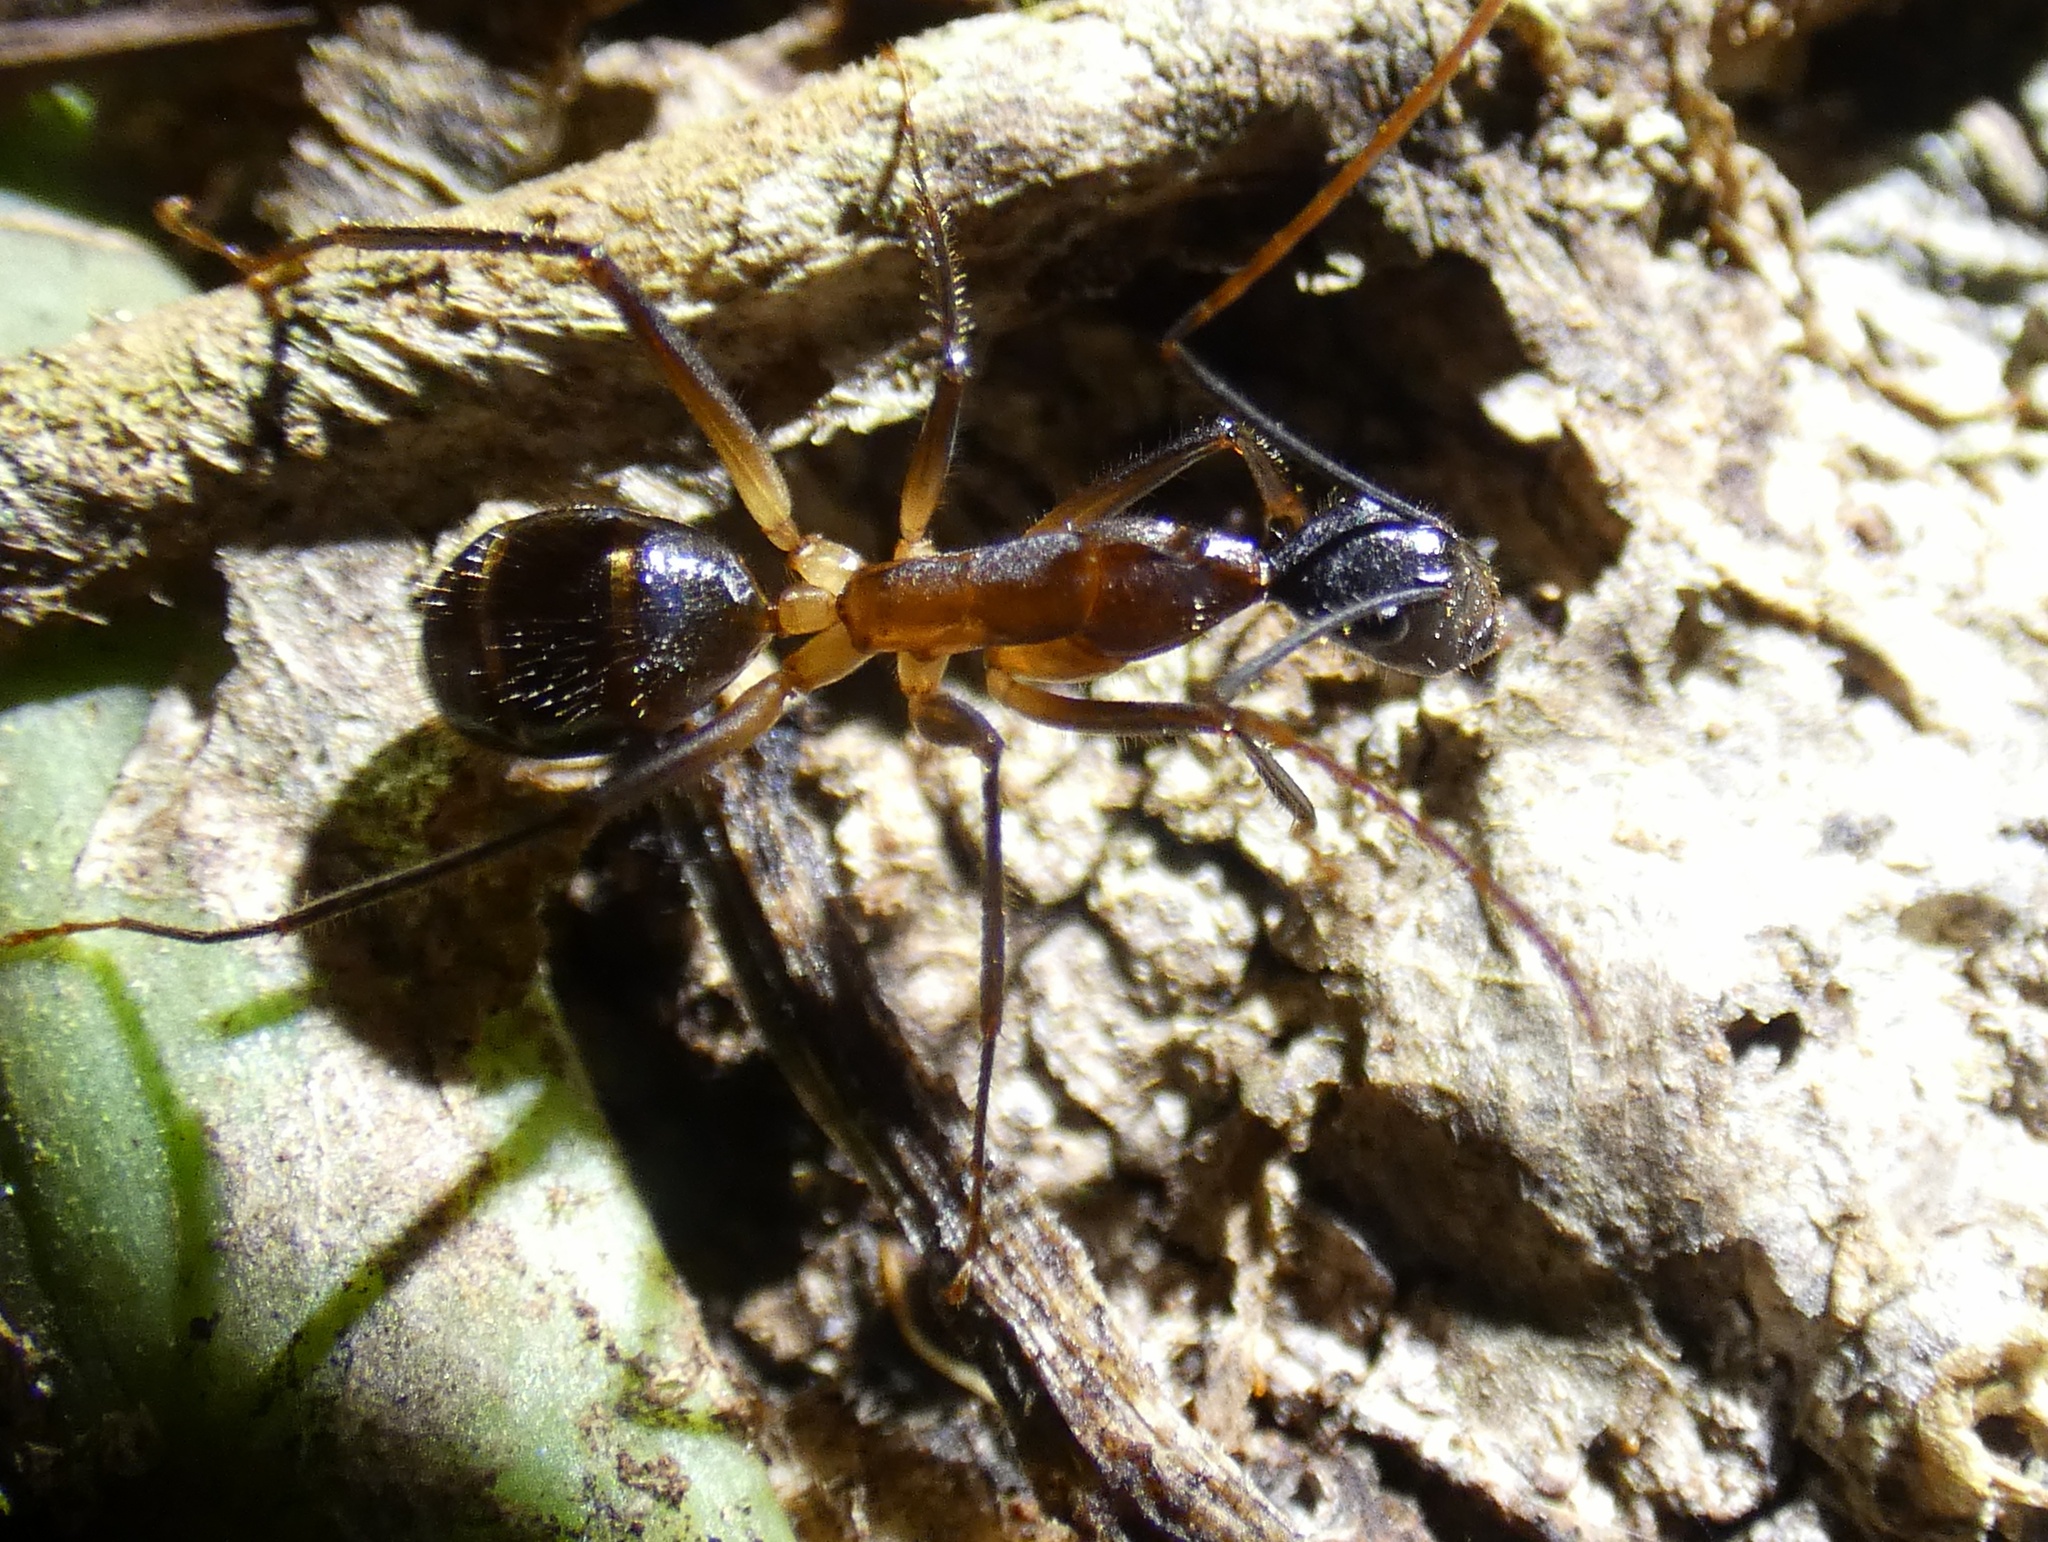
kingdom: Animalia
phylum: Arthropoda
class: Insecta
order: Hymenoptera
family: Formicidae
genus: Camponotus
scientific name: Camponotus
